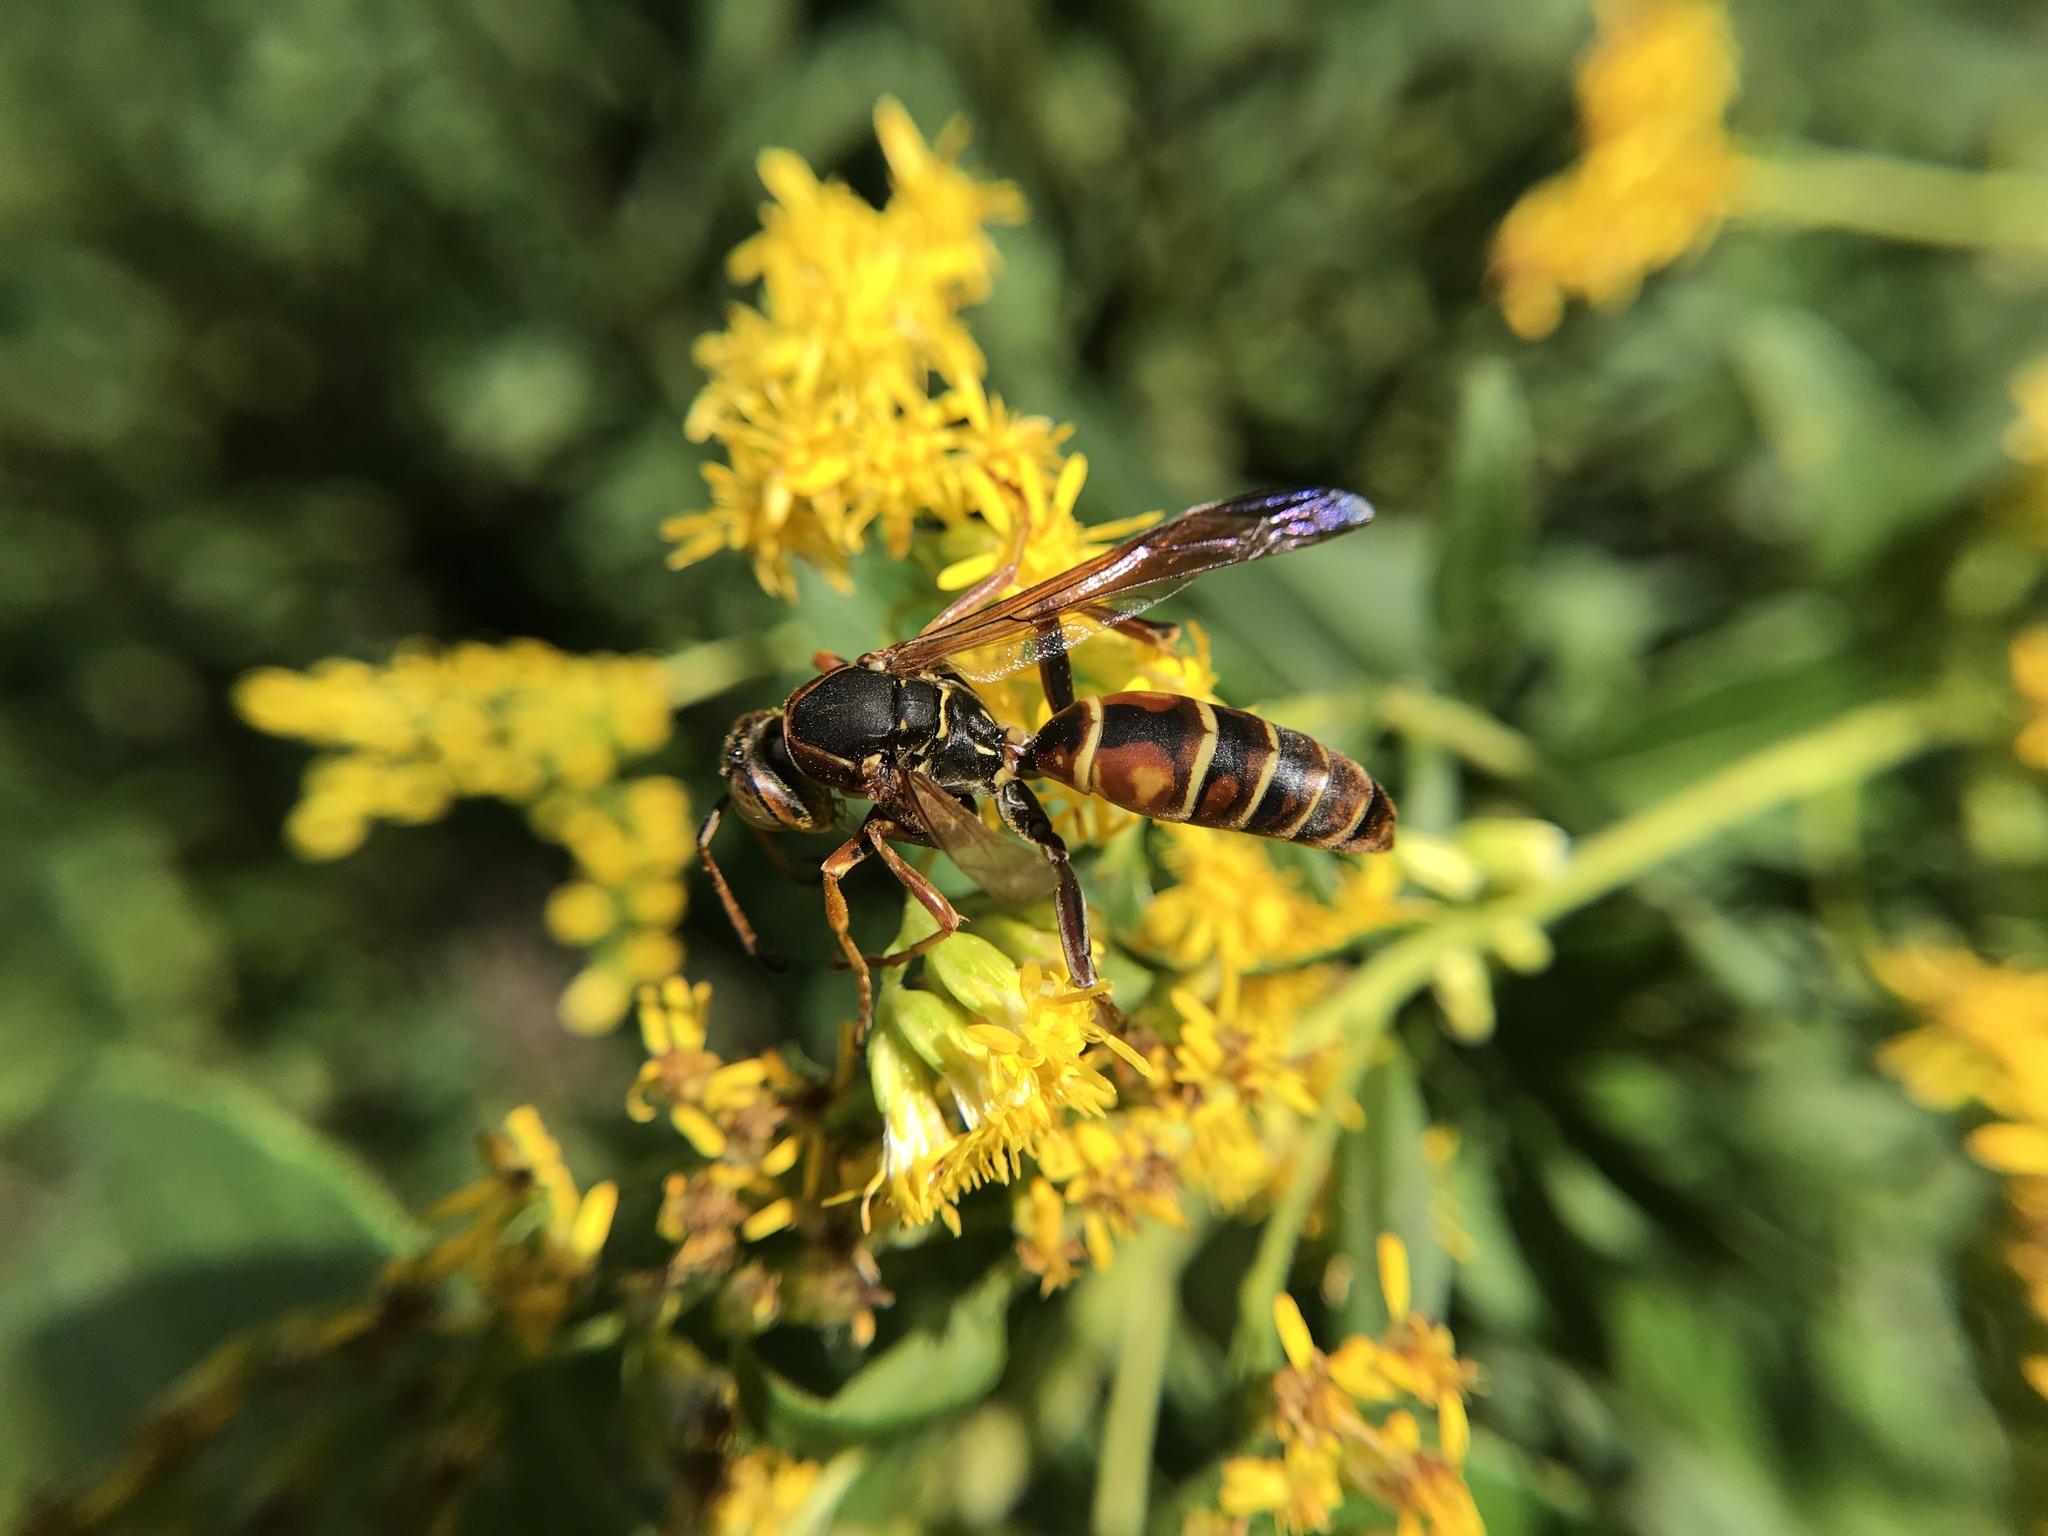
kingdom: Animalia
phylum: Arthropoda
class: Insecta
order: Hymenoptera
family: Eumenidae
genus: Polistes
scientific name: Polistes fuscatus
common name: Dark paper wasp
